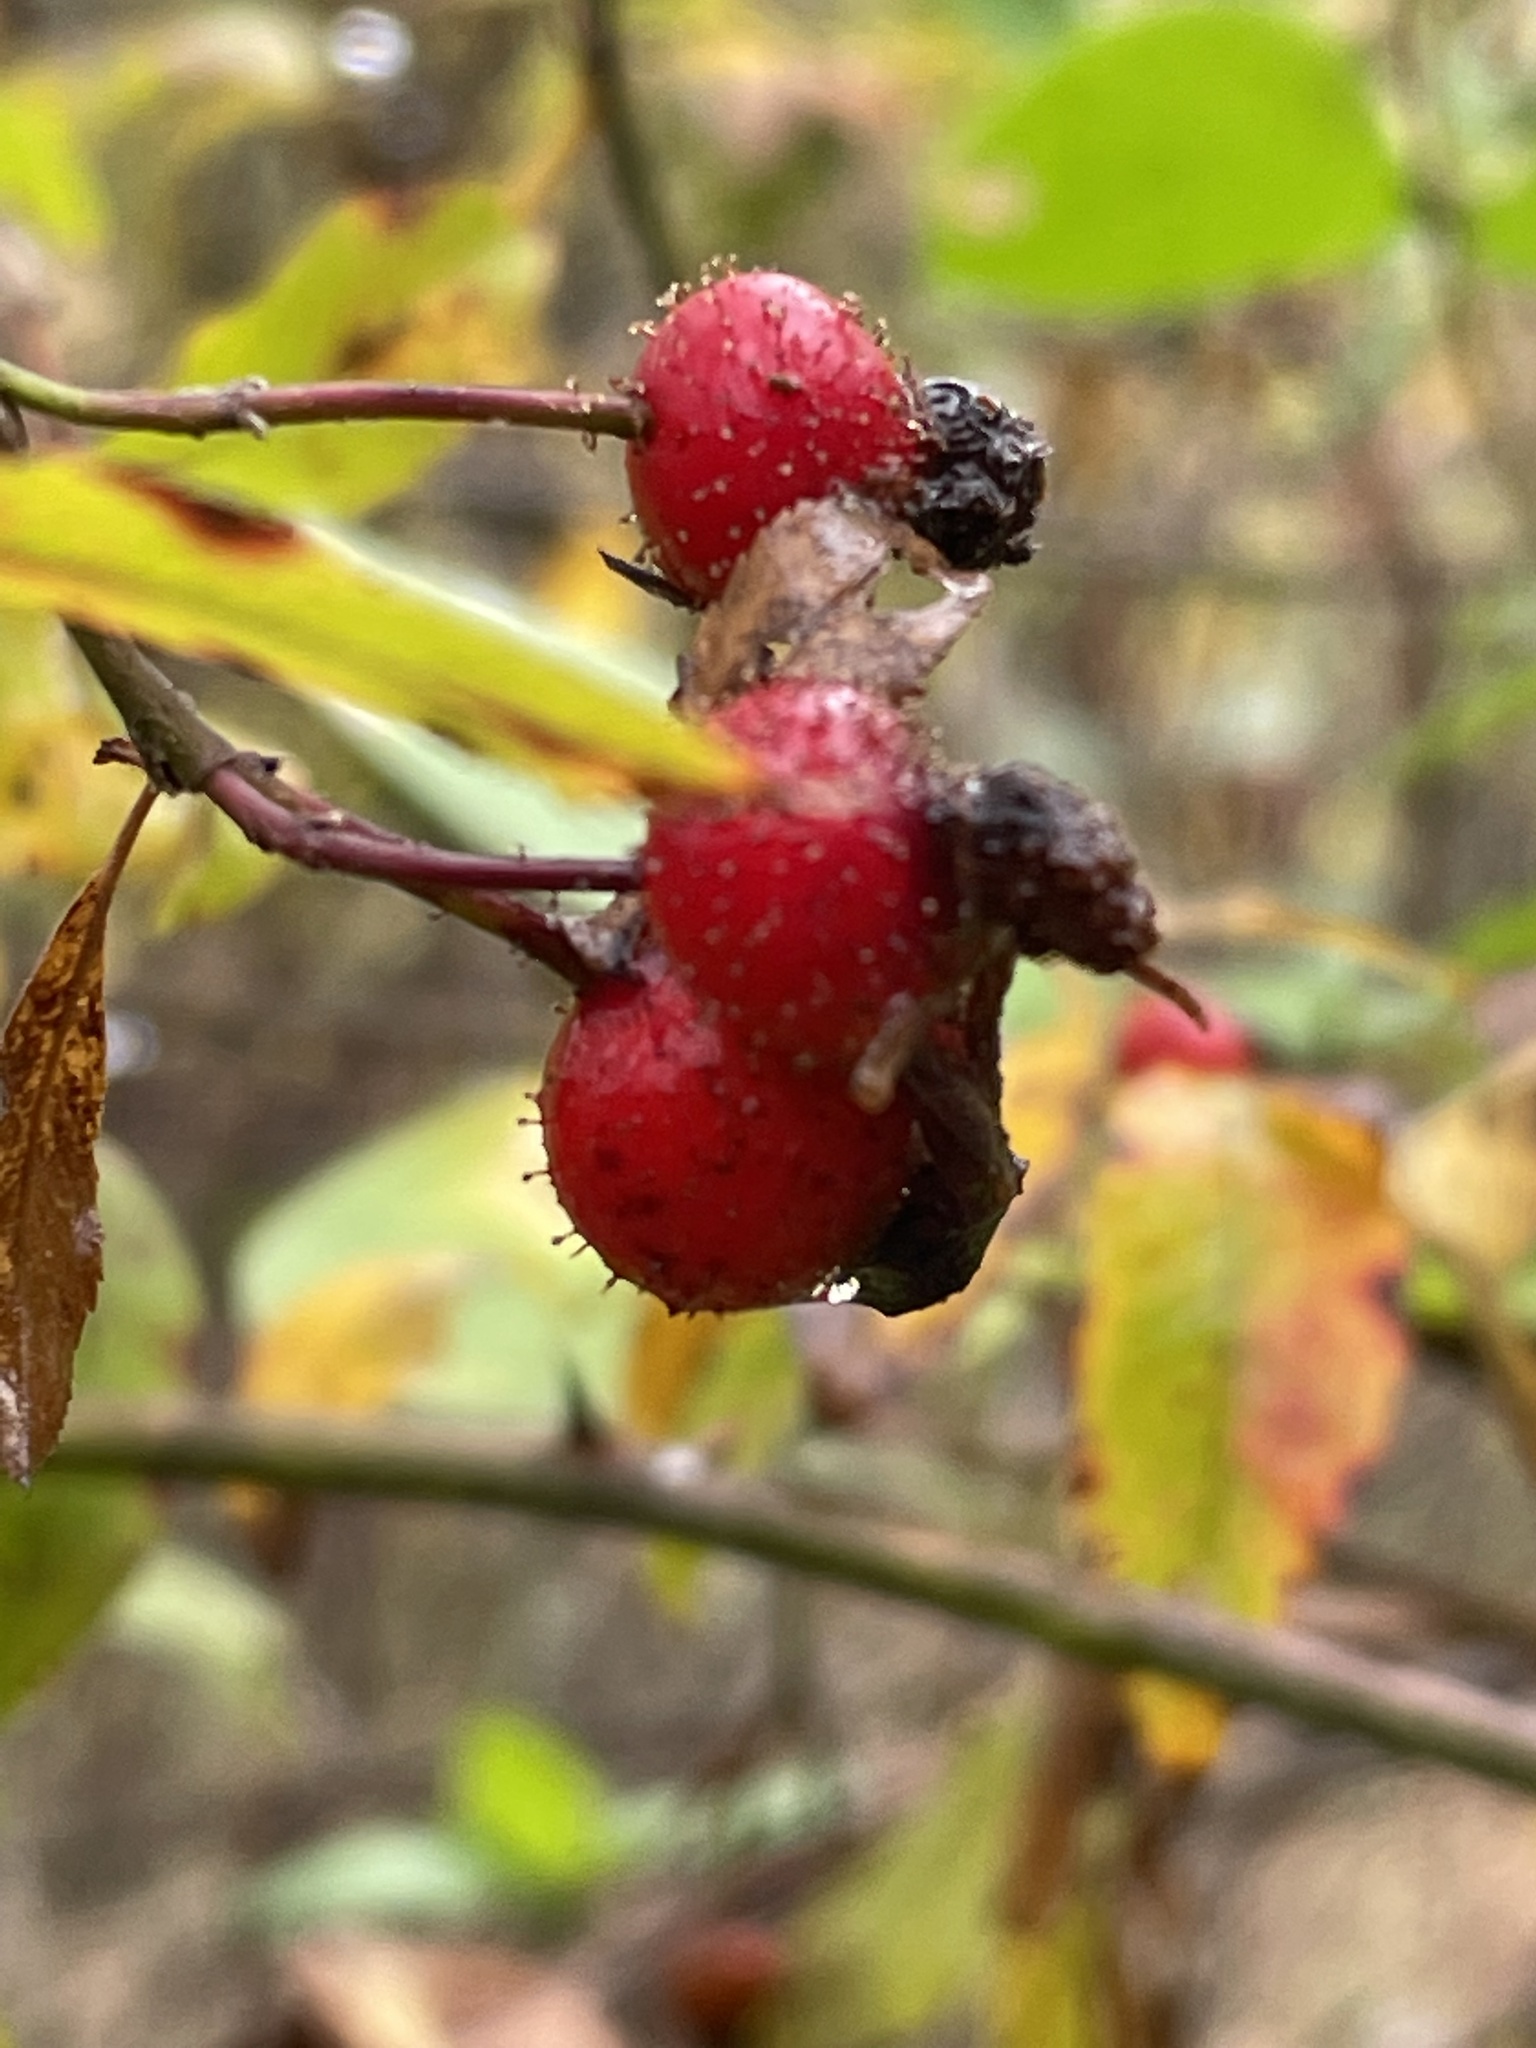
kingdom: Plantae
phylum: Tracheophyta
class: Magnoliopsida
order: Rosales
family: Rosaceae
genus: Rosa
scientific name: Rosa palustris
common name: Swamp rose
